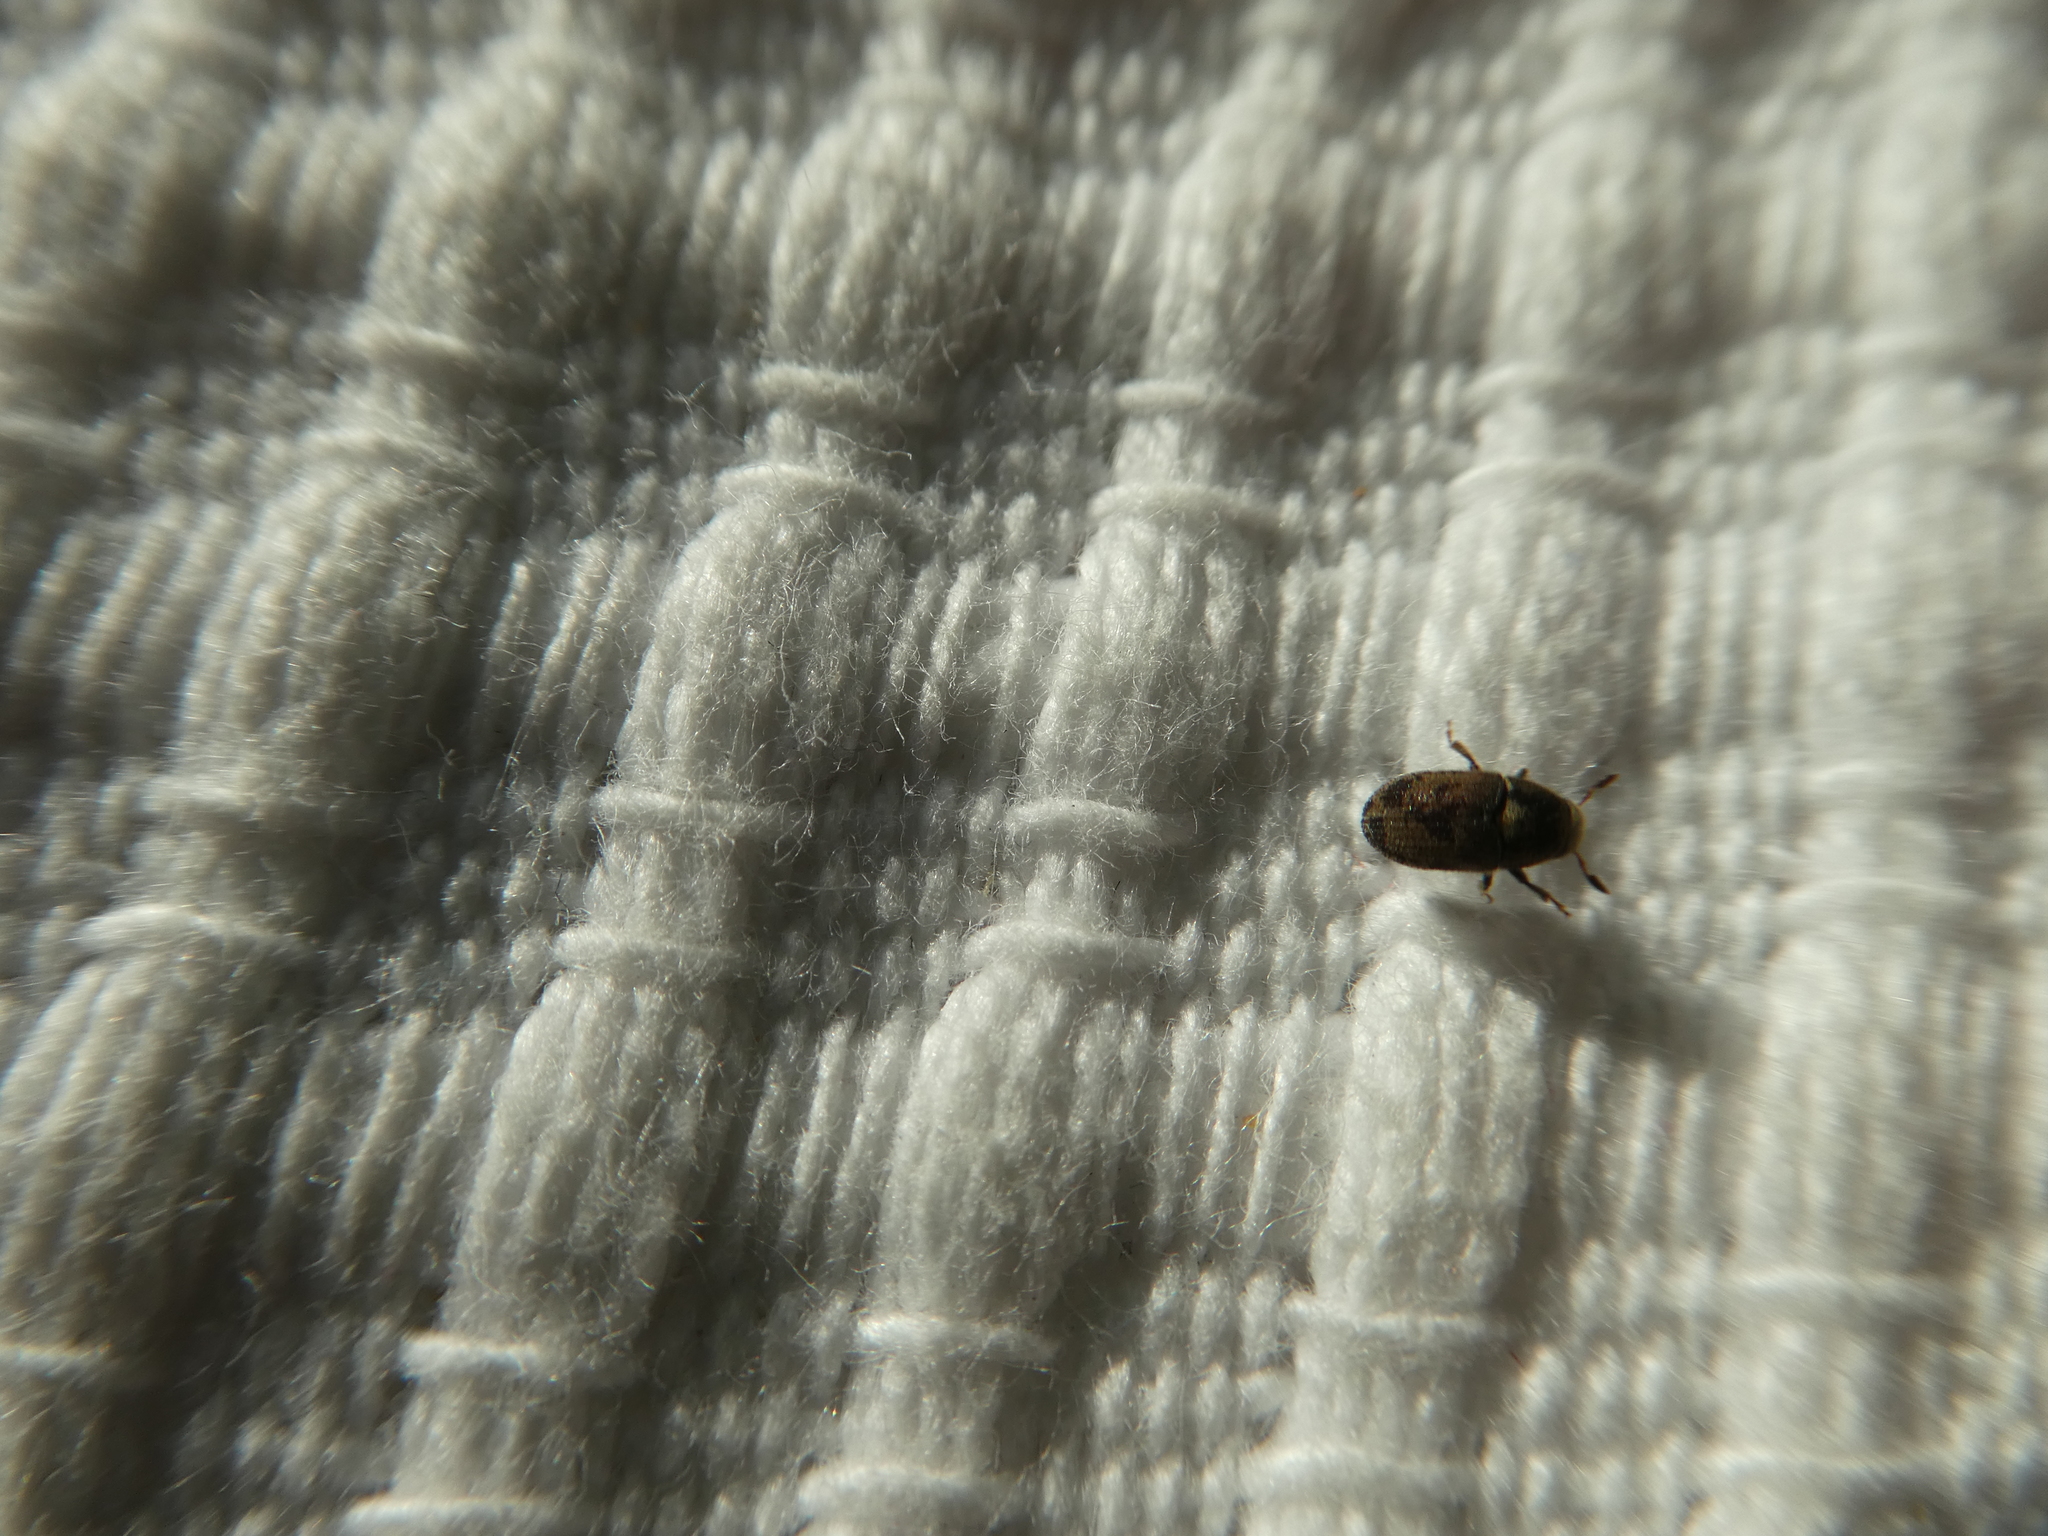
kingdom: Animalia
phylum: Arthropoda
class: Insecta
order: Coleoptera
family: Curculionidae
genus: Hylesinus
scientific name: Hylesinus varius
